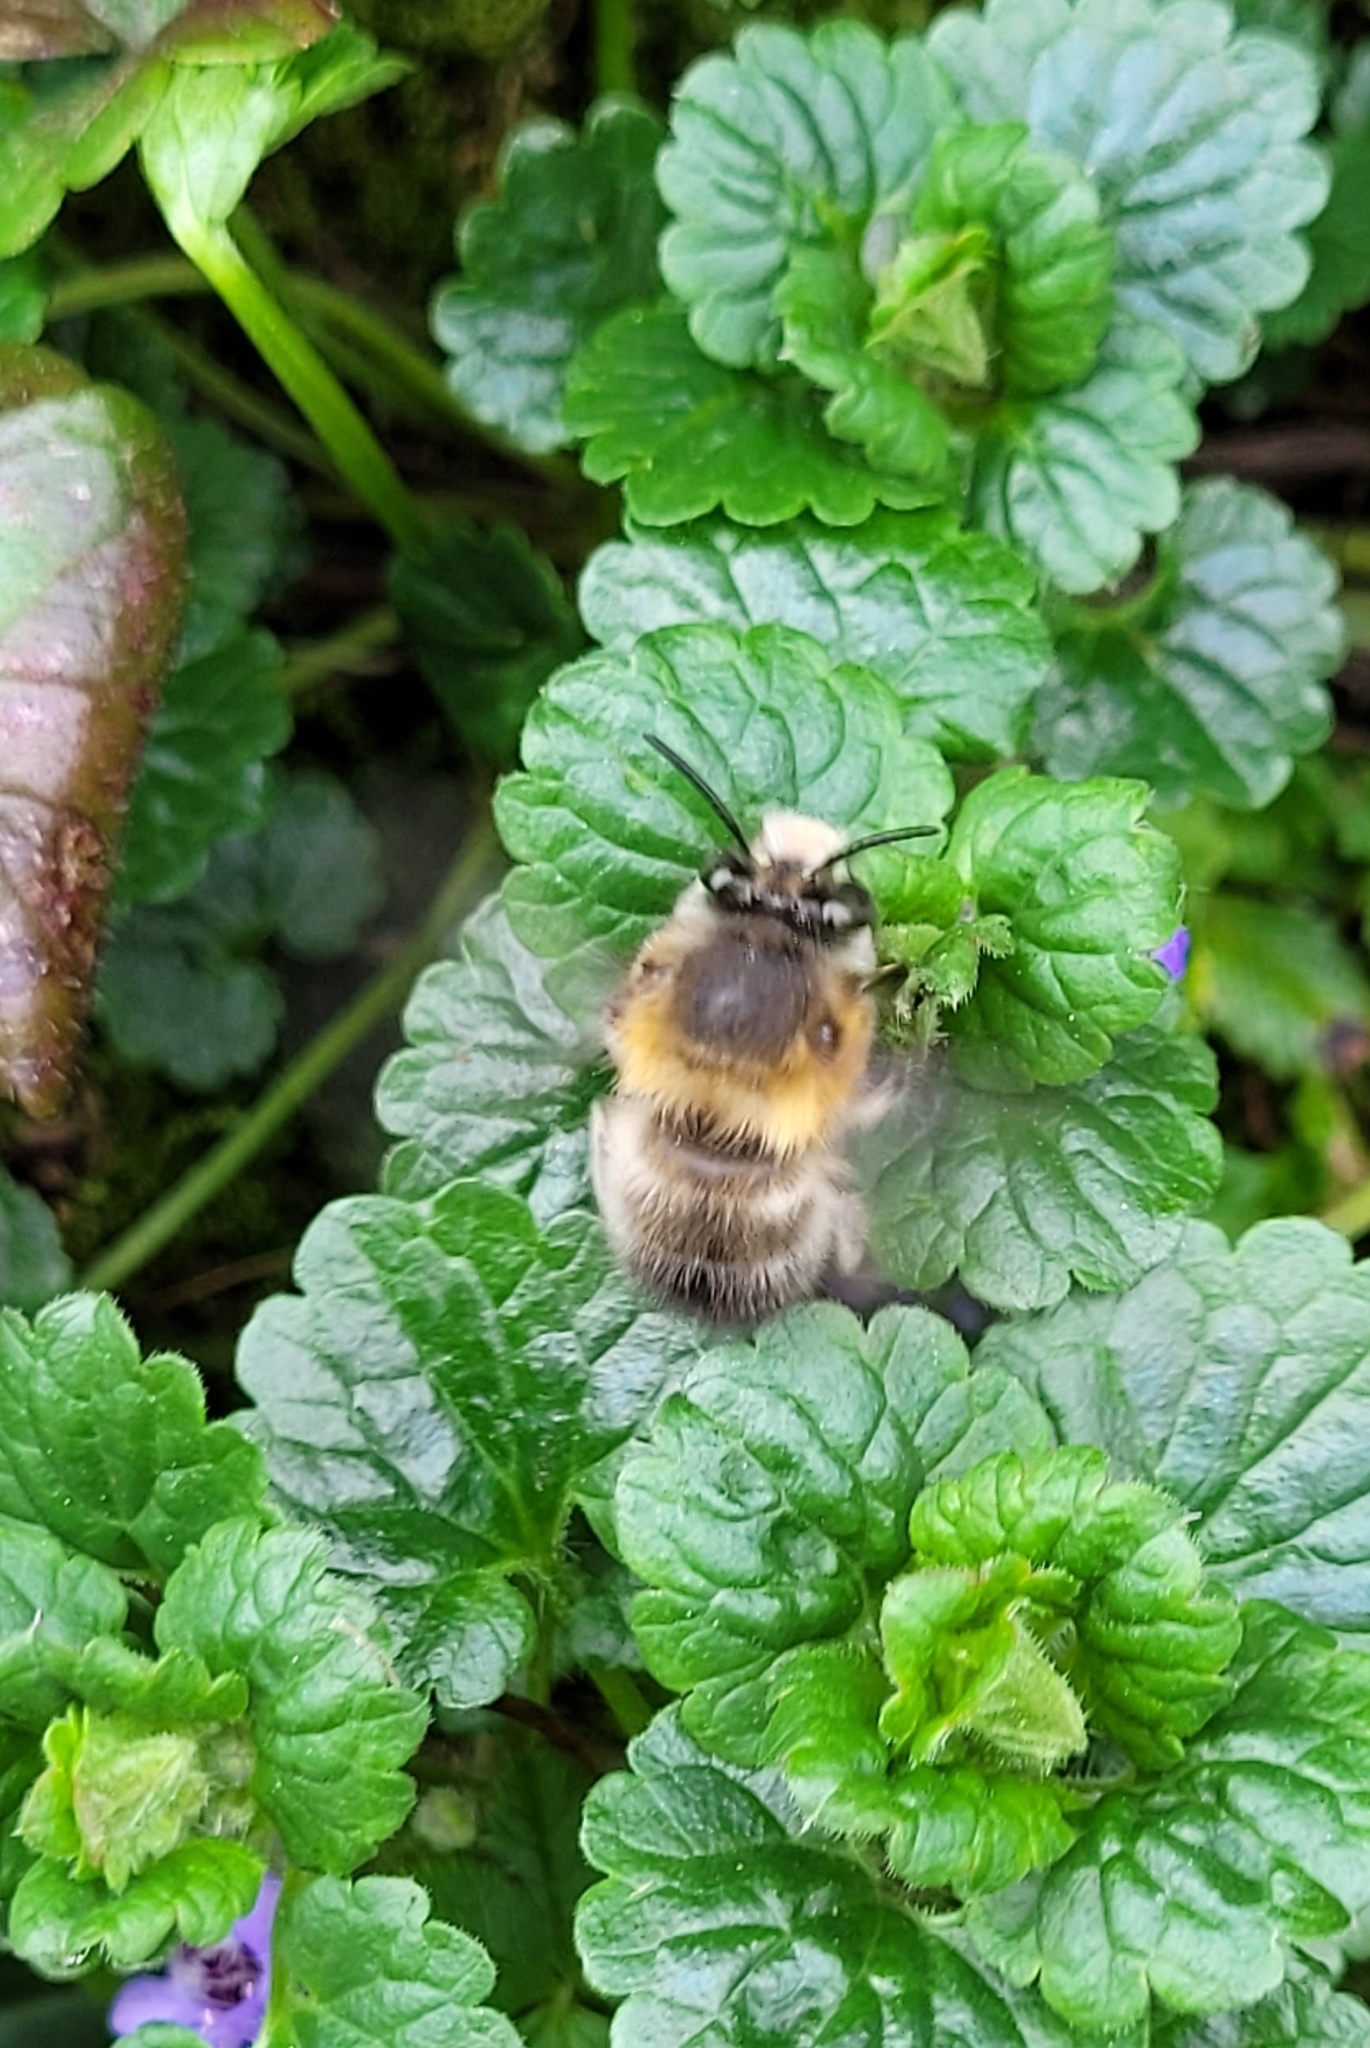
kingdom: Animalia
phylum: Arthropoda
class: Insecta
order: Hymenoptera
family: Apidae
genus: Anthophora
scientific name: Anthophora plumipes
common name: Hairy-footed flower bee
